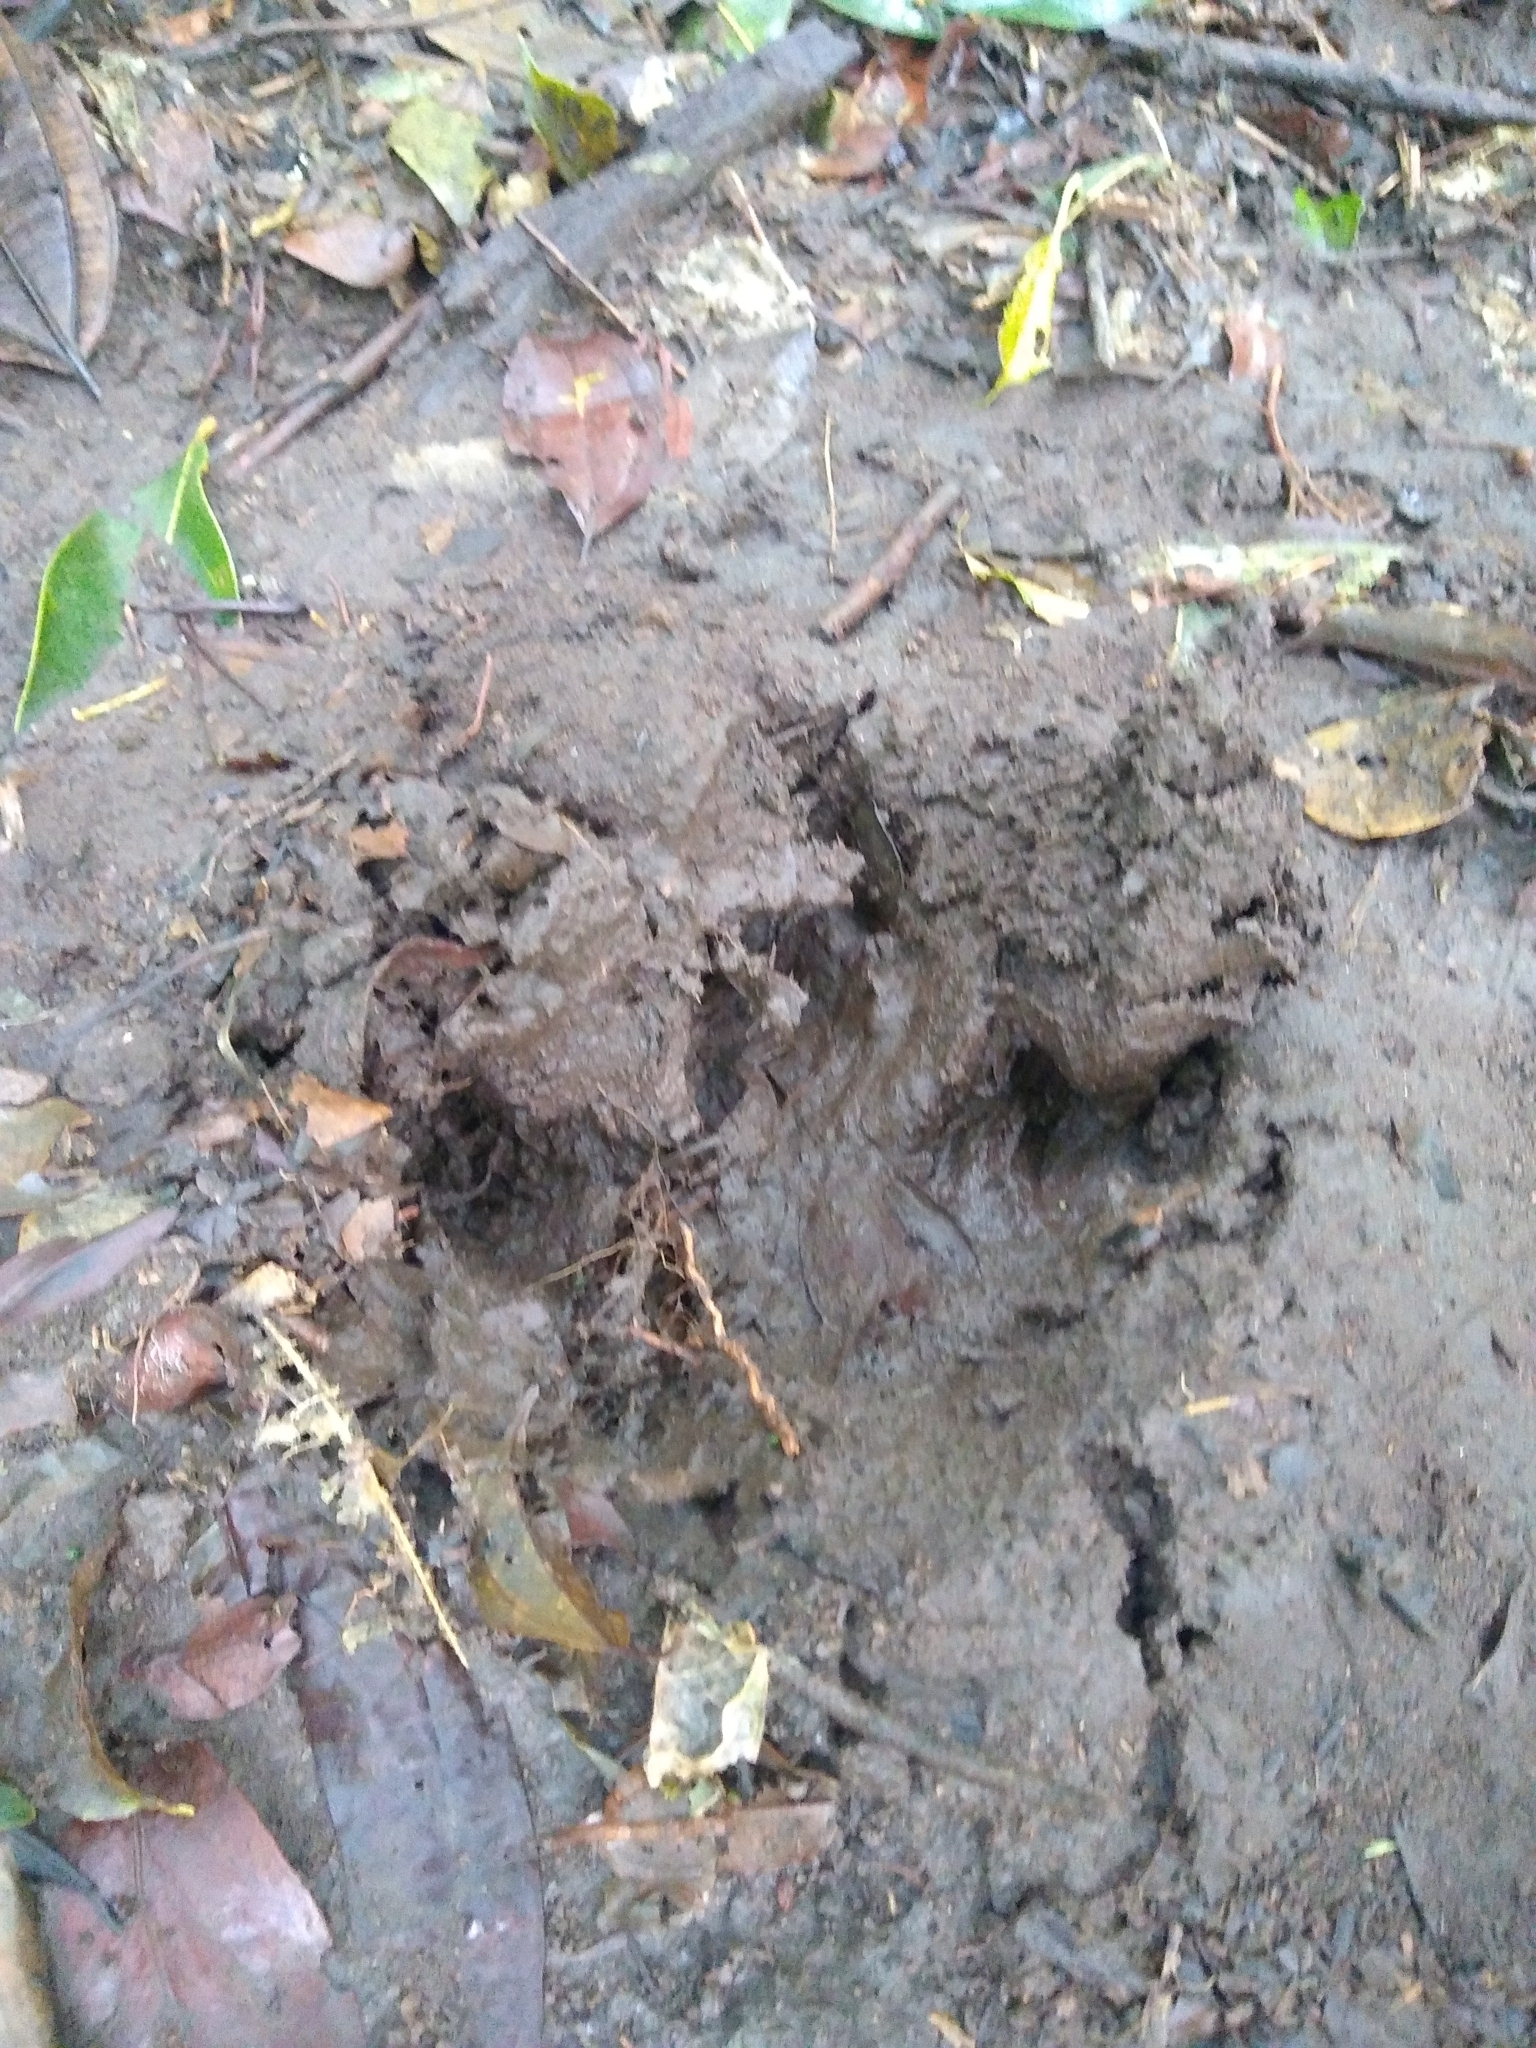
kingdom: Animalia
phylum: Chordata
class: Mammalia
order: Perissodactyla
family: Tapiridae
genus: Tapirella
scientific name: Tapirella bairdii
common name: Baird's tapir
